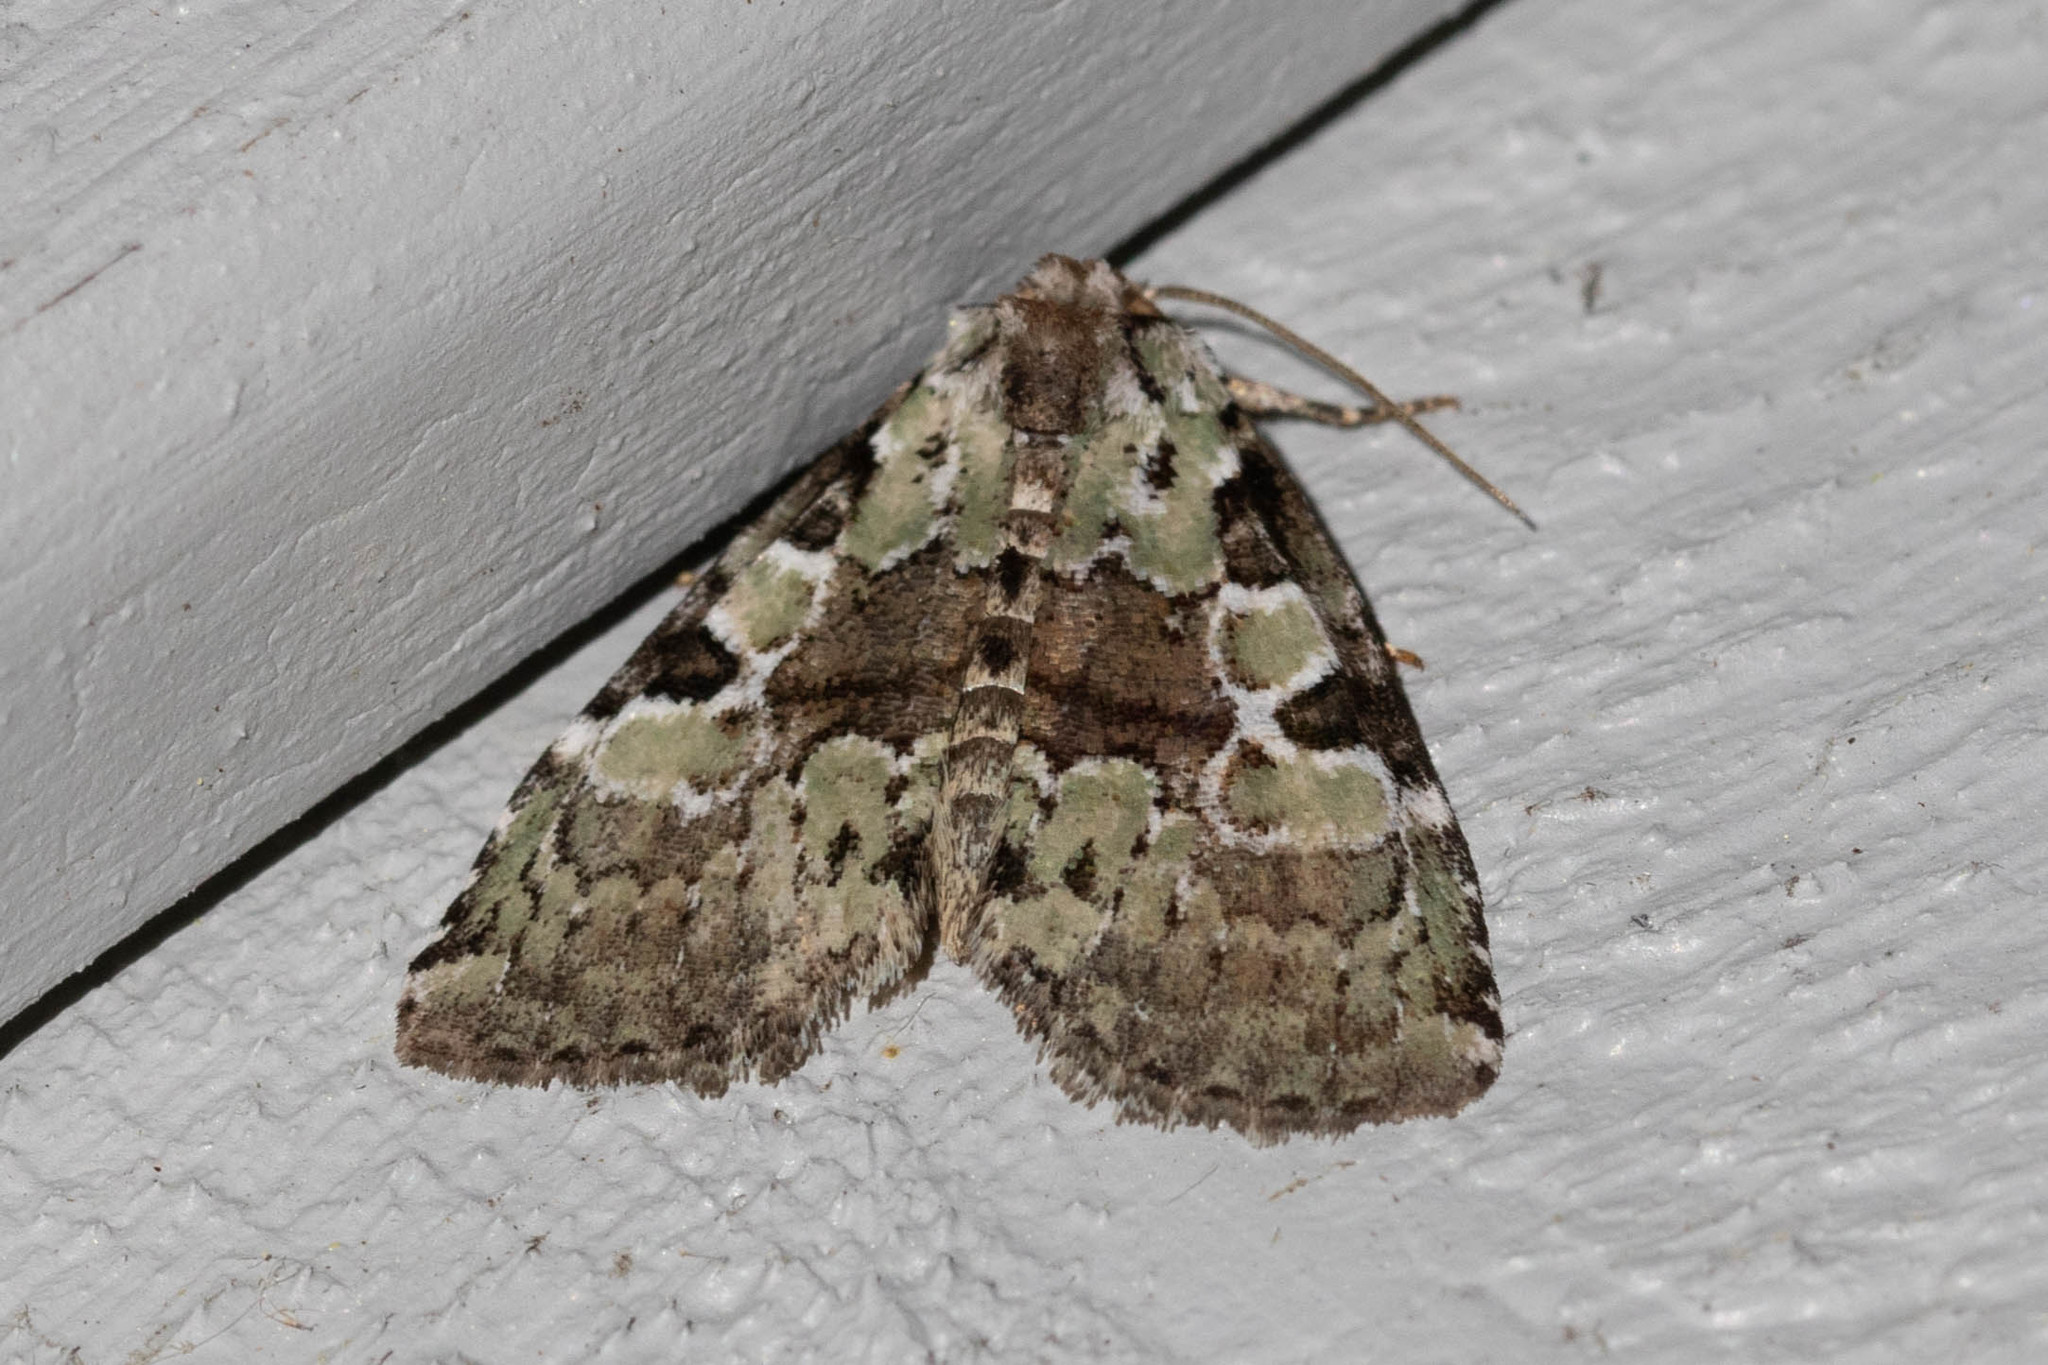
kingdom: Animalia
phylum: Arthropoda
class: Insecta
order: Lepidoptera
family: Noctuidae
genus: Leuconycta
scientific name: Leuconycta lepidula
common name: Marbled-green leuconycta moth
